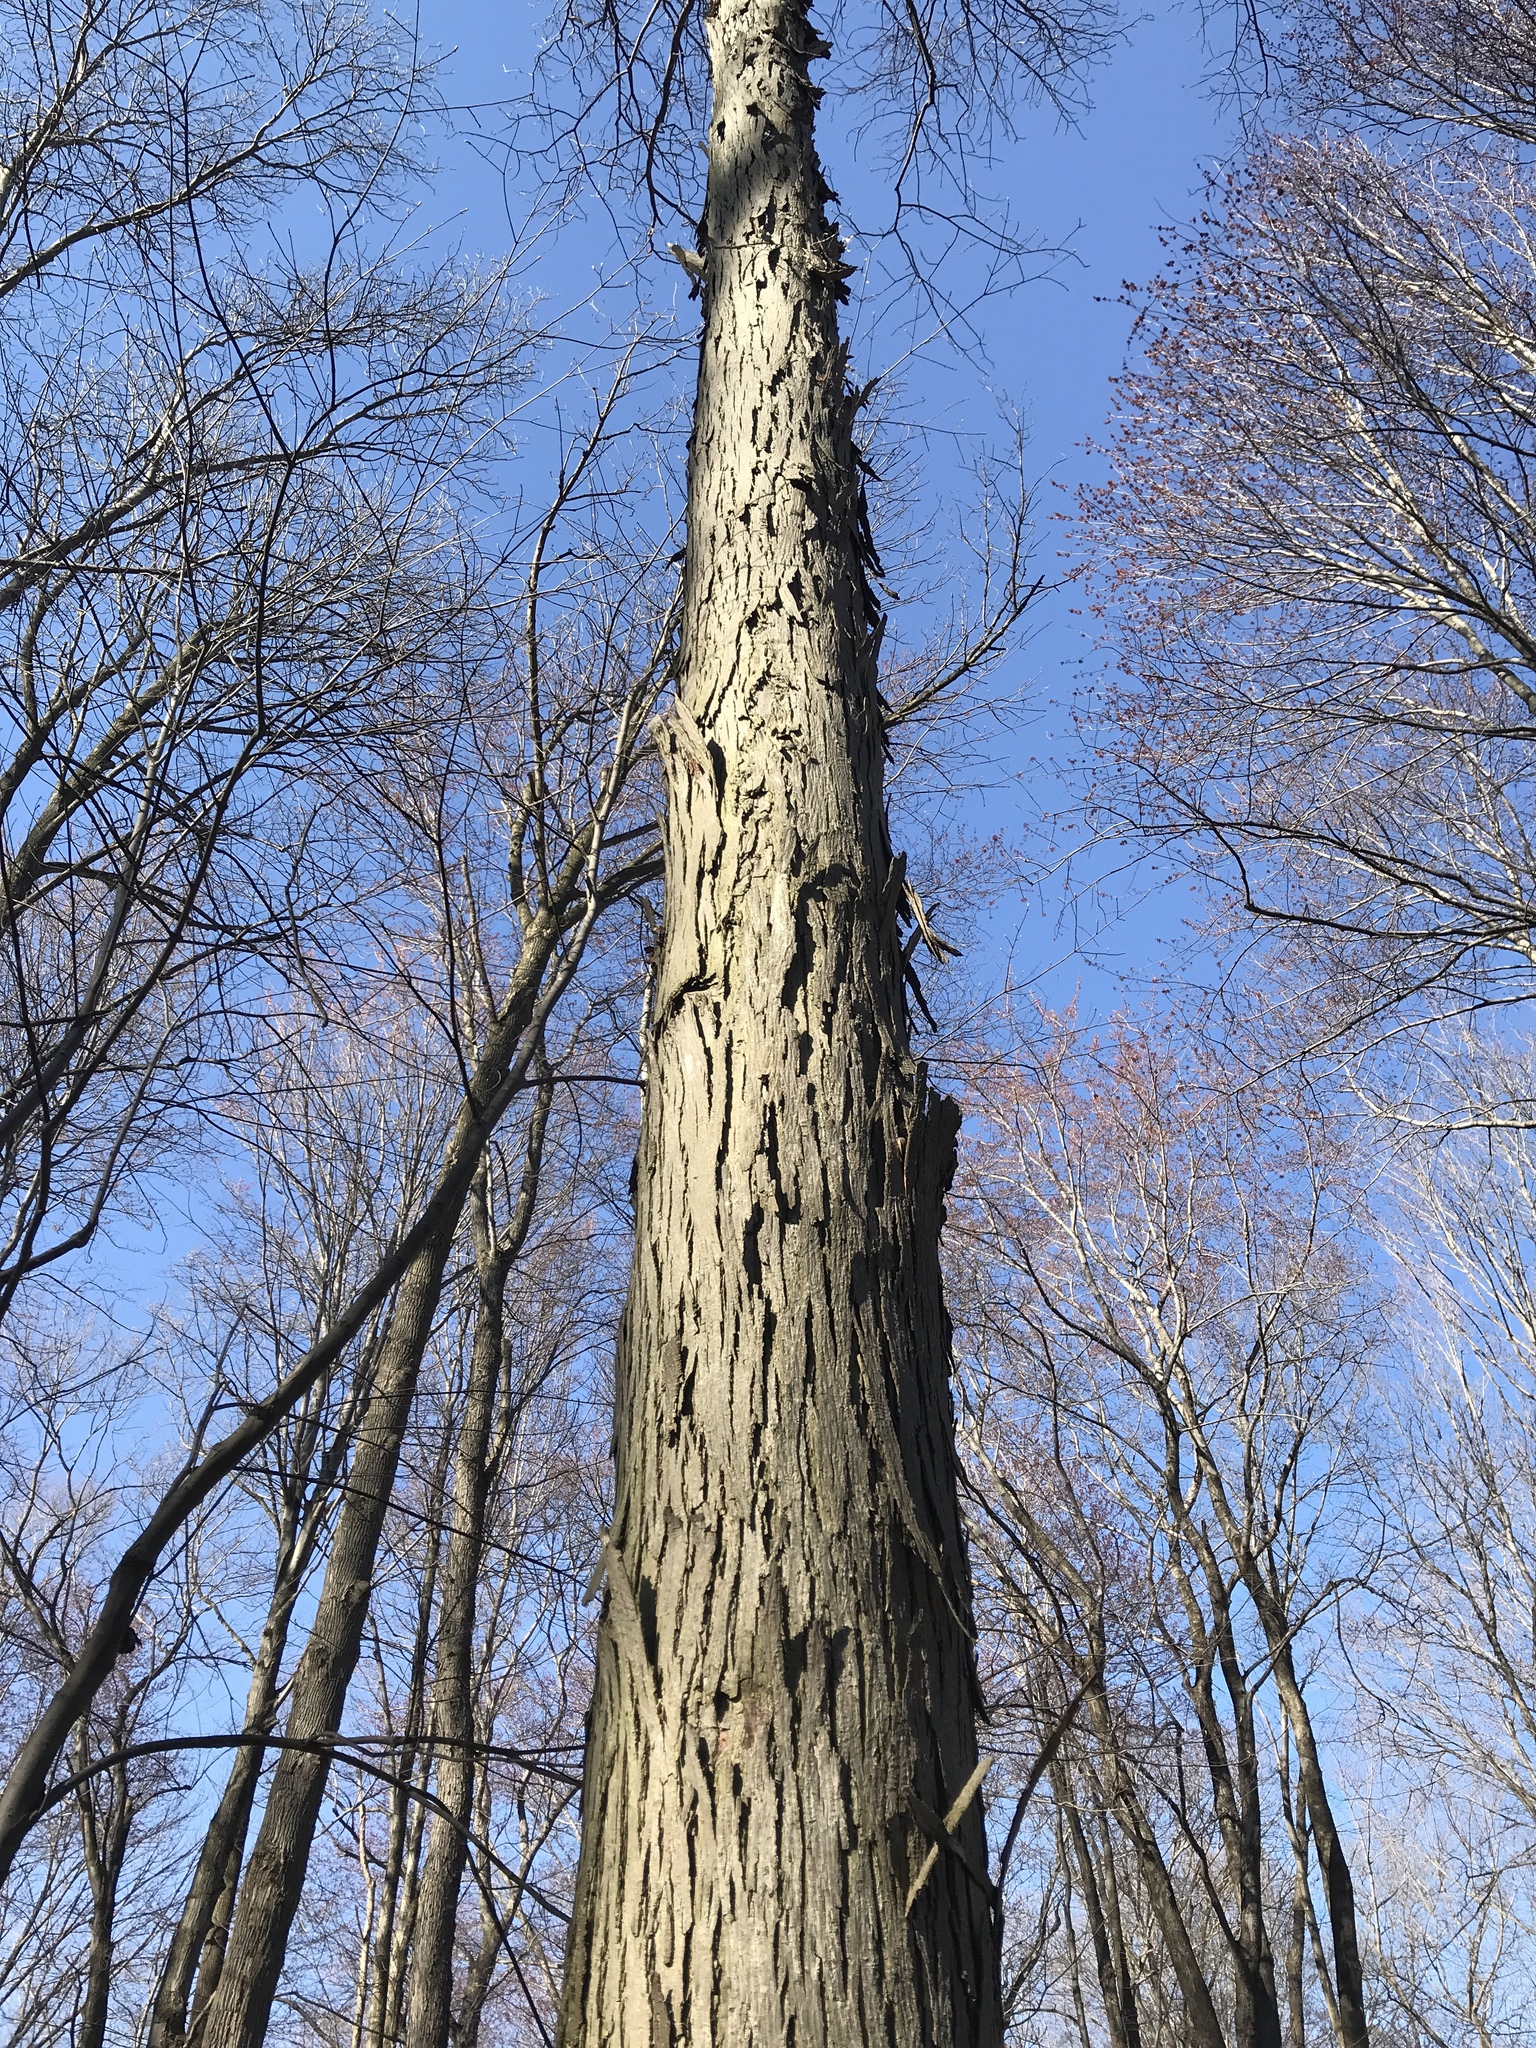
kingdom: Plantae
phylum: Tracheophyta
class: Magnoliopsida
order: Fagales
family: Juglandaceae
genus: Carya
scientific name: Carya ovata
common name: Shagbark hickory
